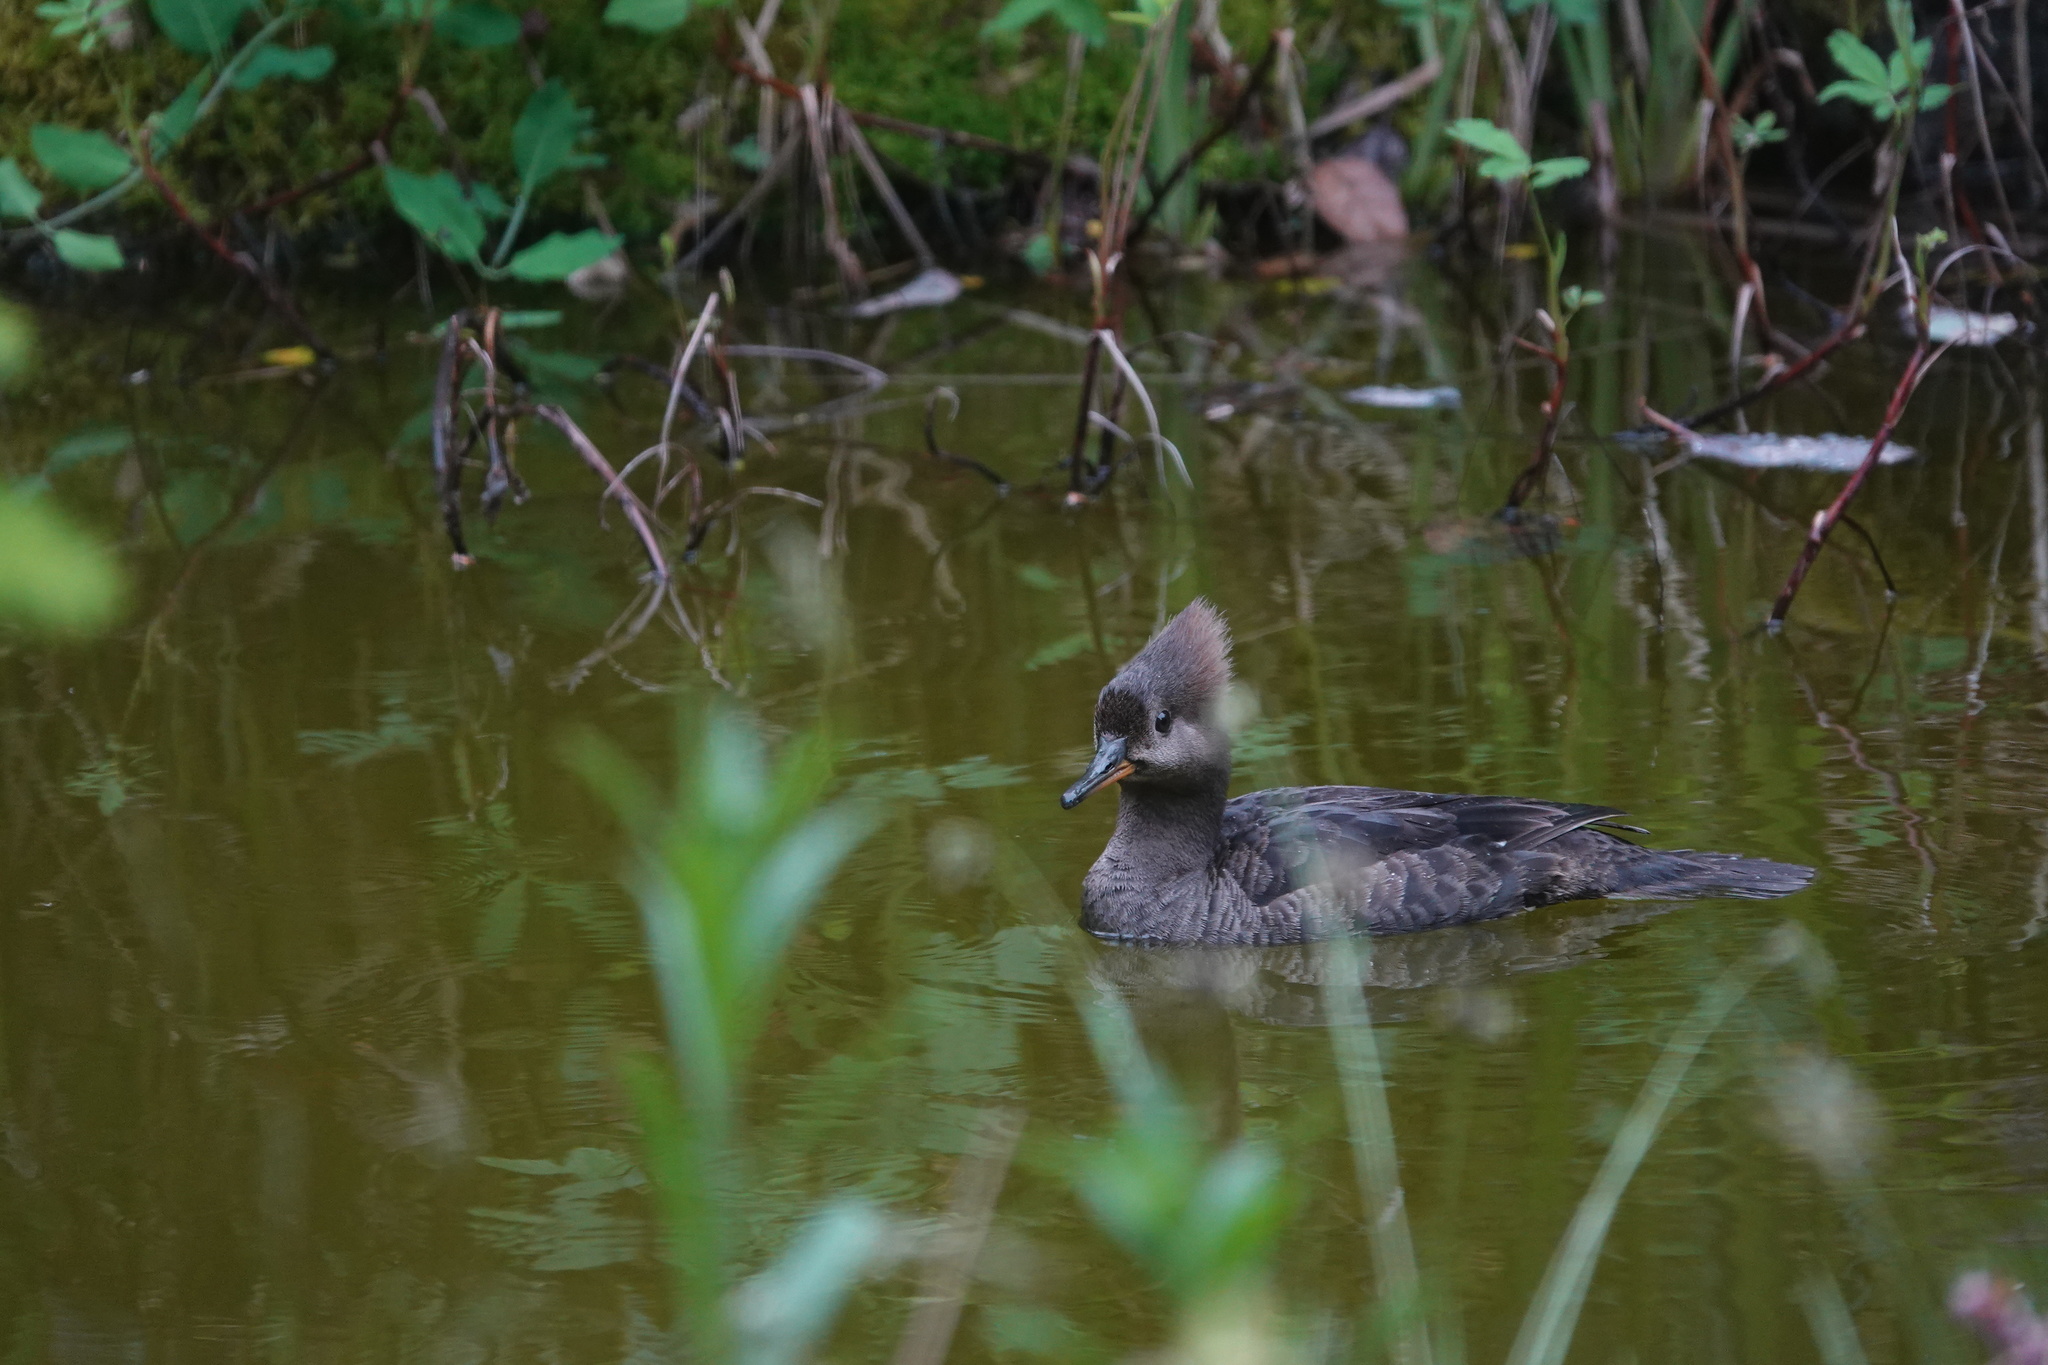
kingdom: Animalia
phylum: Chordata
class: Aves
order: Anseriformes
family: Anatidae
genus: Lophodytes
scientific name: Lophodytes cucullatus
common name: Hooded merganser
